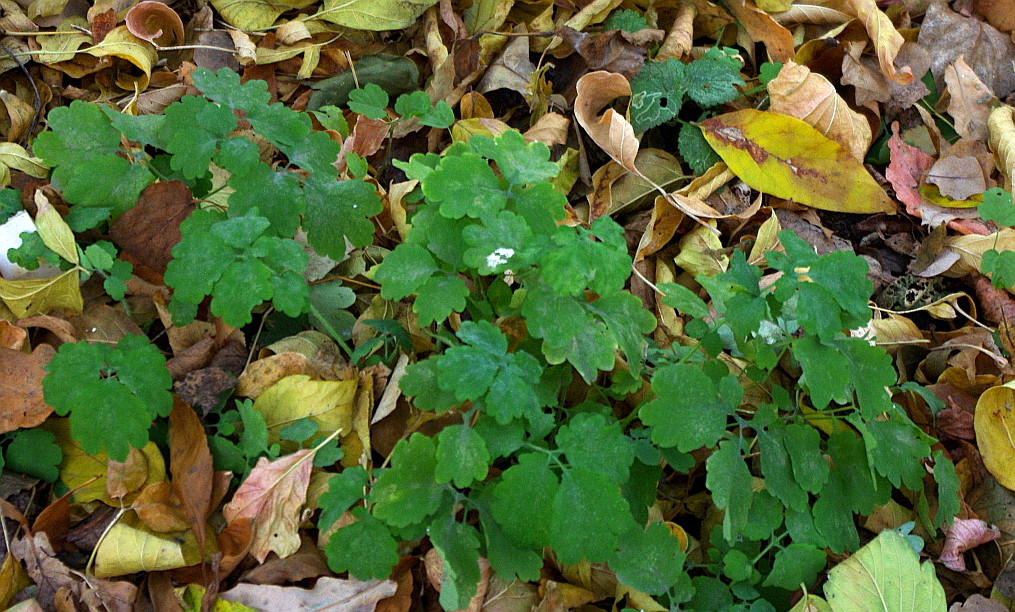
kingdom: Plantae
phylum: Tracheophyta
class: Magnoliopsida
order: Ranunculales
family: Papaveraceae
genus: Chelidonium
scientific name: Chelidonium majus
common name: Greater celandine
